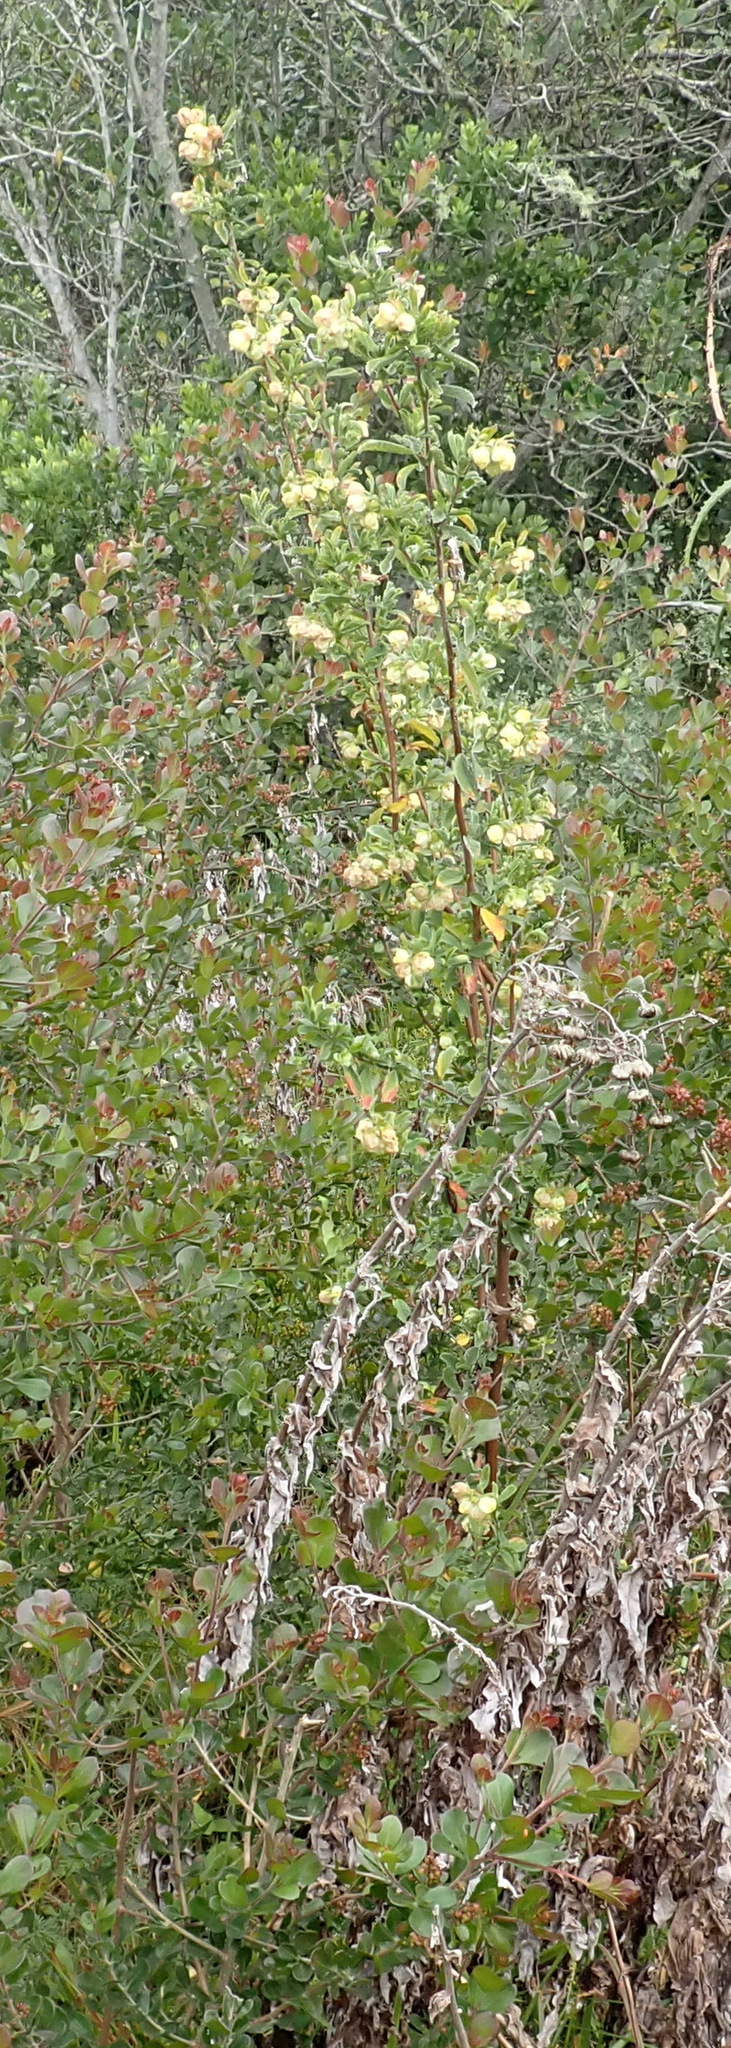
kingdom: Plantae
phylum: Tracheophyta
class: Magnoliopsida
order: Malvales
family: Malvaceae
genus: Hermannia
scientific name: Hermannia hyssopifolia
